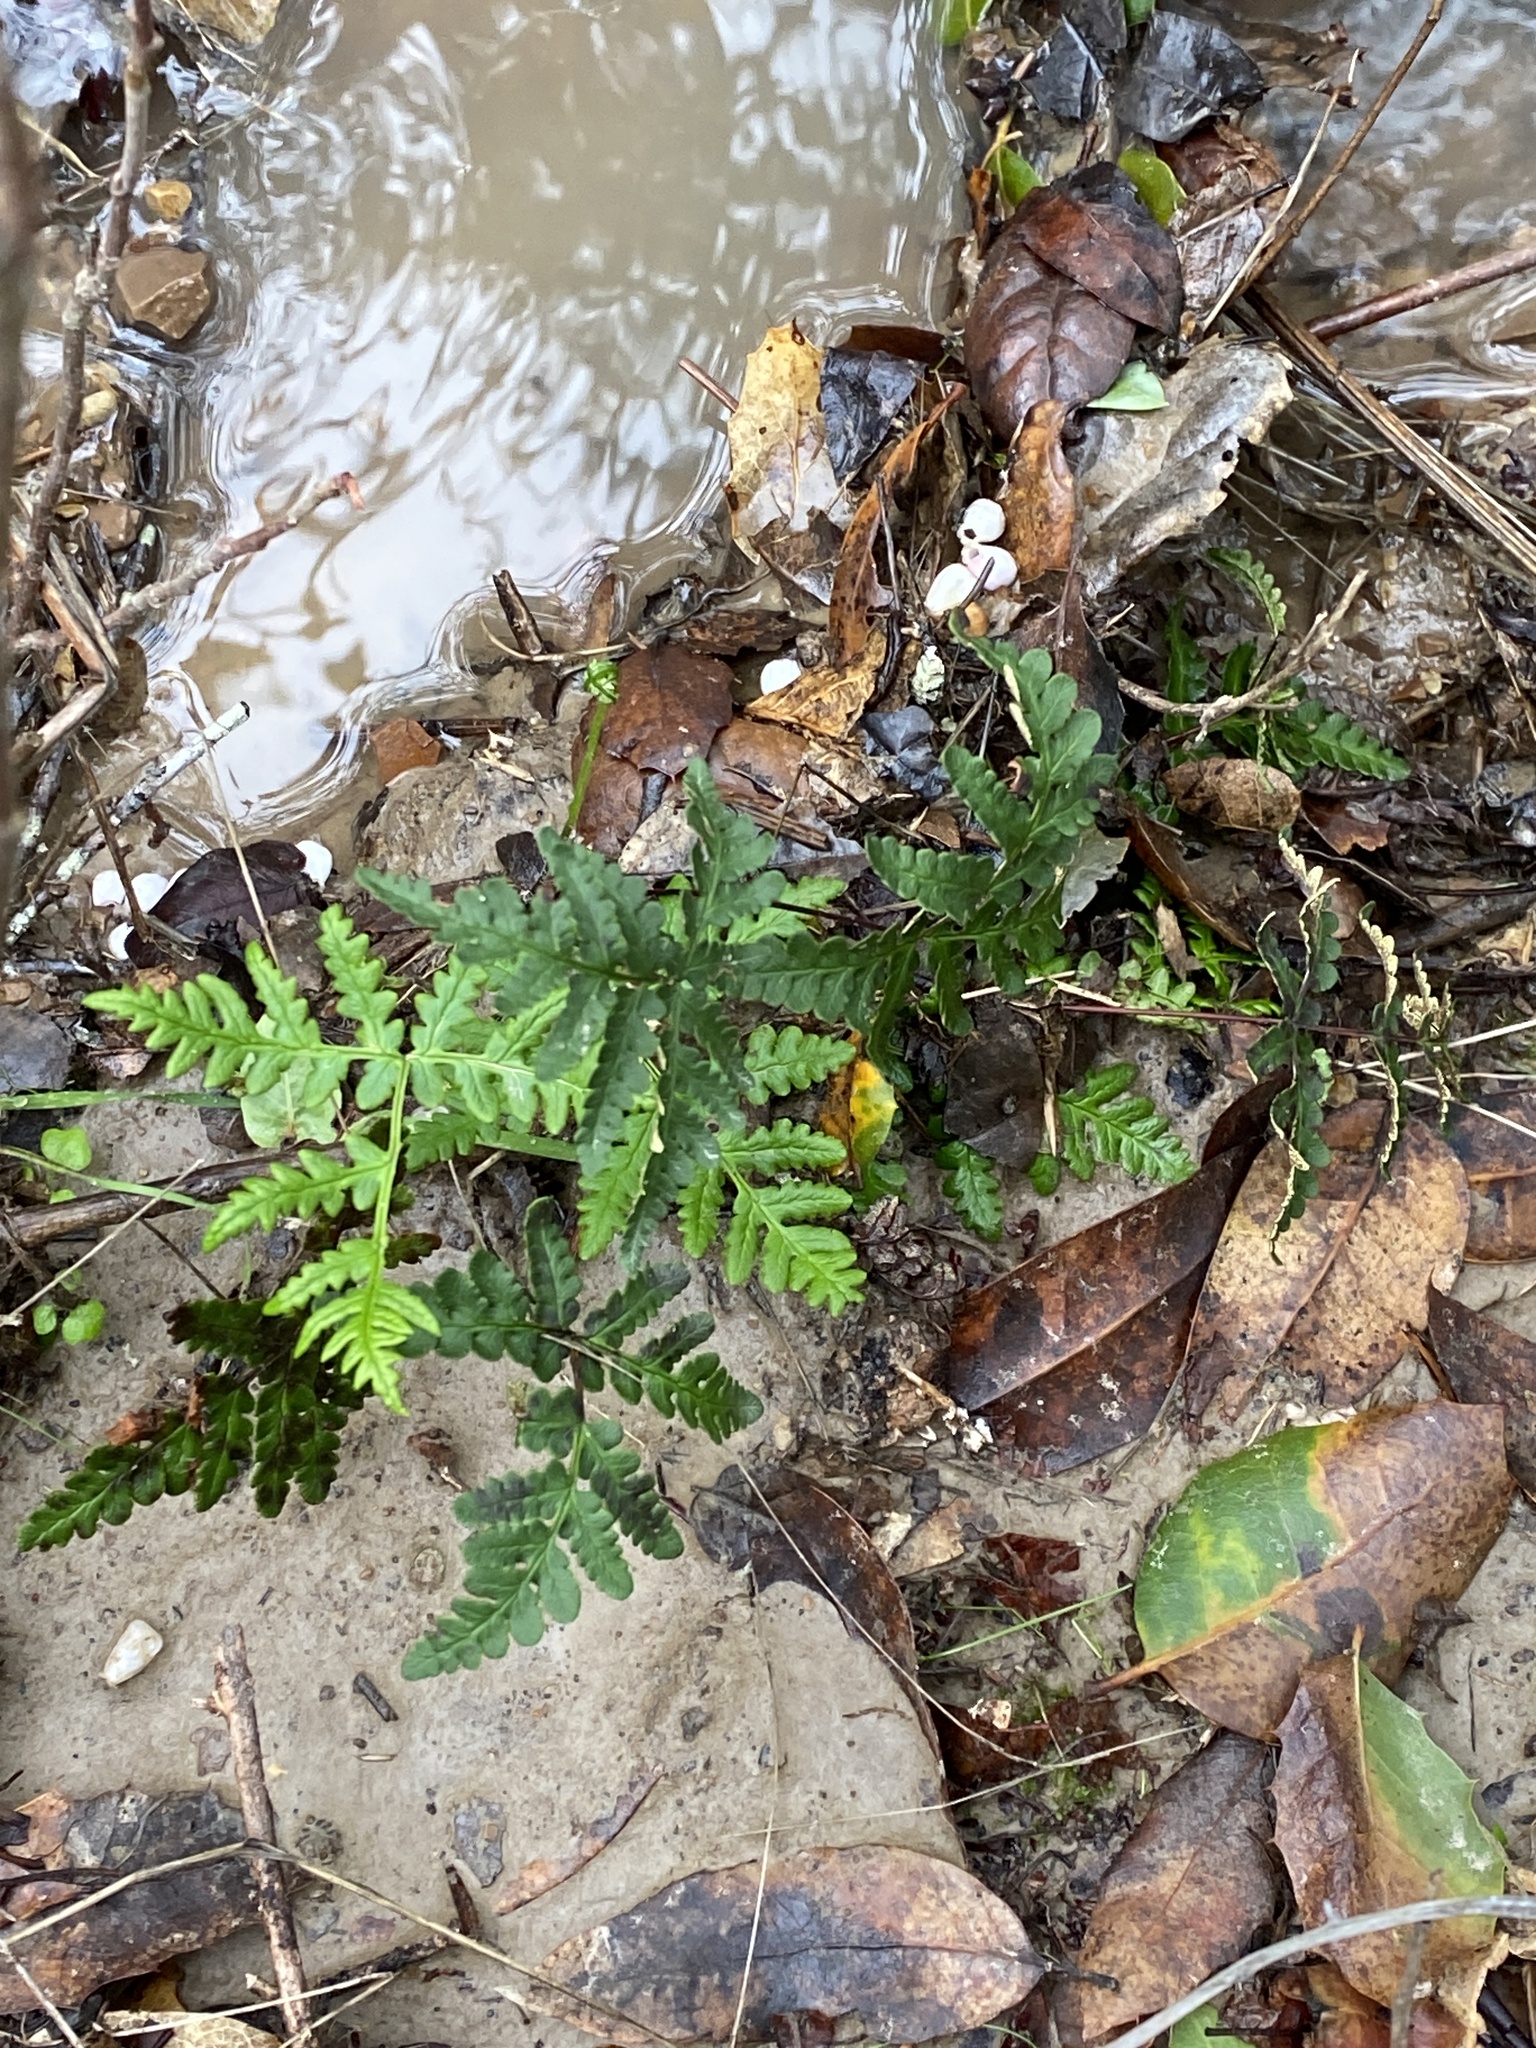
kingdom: Plantae
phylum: Tracheophyta
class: Polypodiopsida
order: Polypodiales
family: Pteridaceae
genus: Pentagramma
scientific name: Pentagramma triangularis
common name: Gold fern
